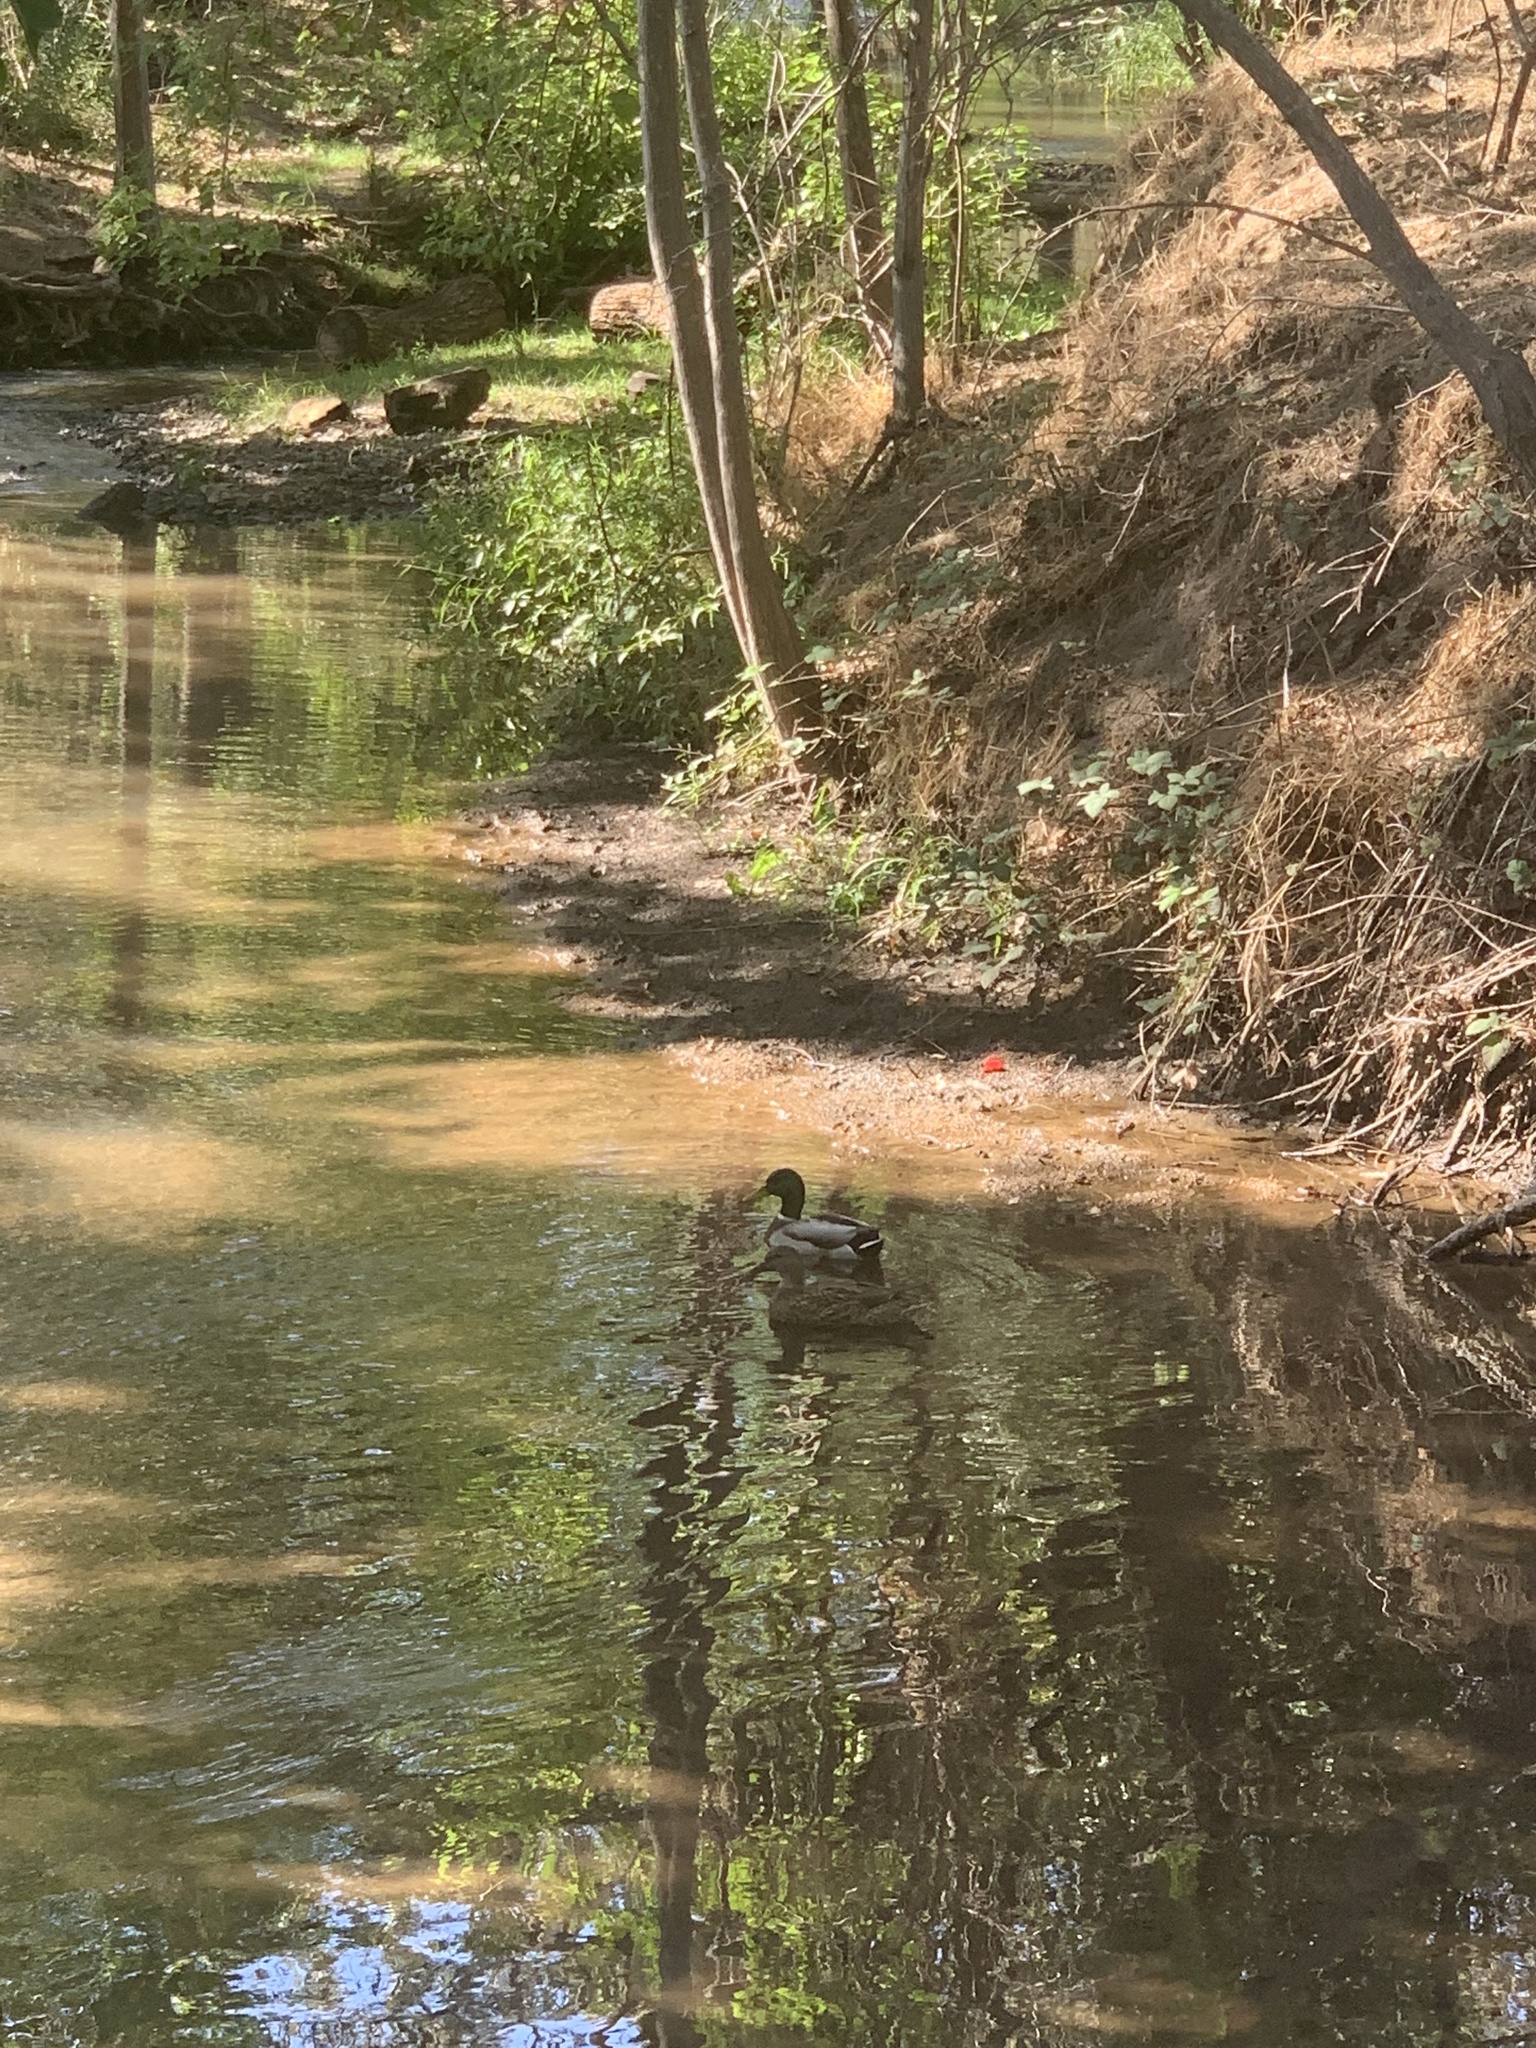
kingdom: Animalia
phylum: Chordata
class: Aves
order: Anseriformes
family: Anatidae
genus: Anas
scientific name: Anas platyrhynchos
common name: Mallard
